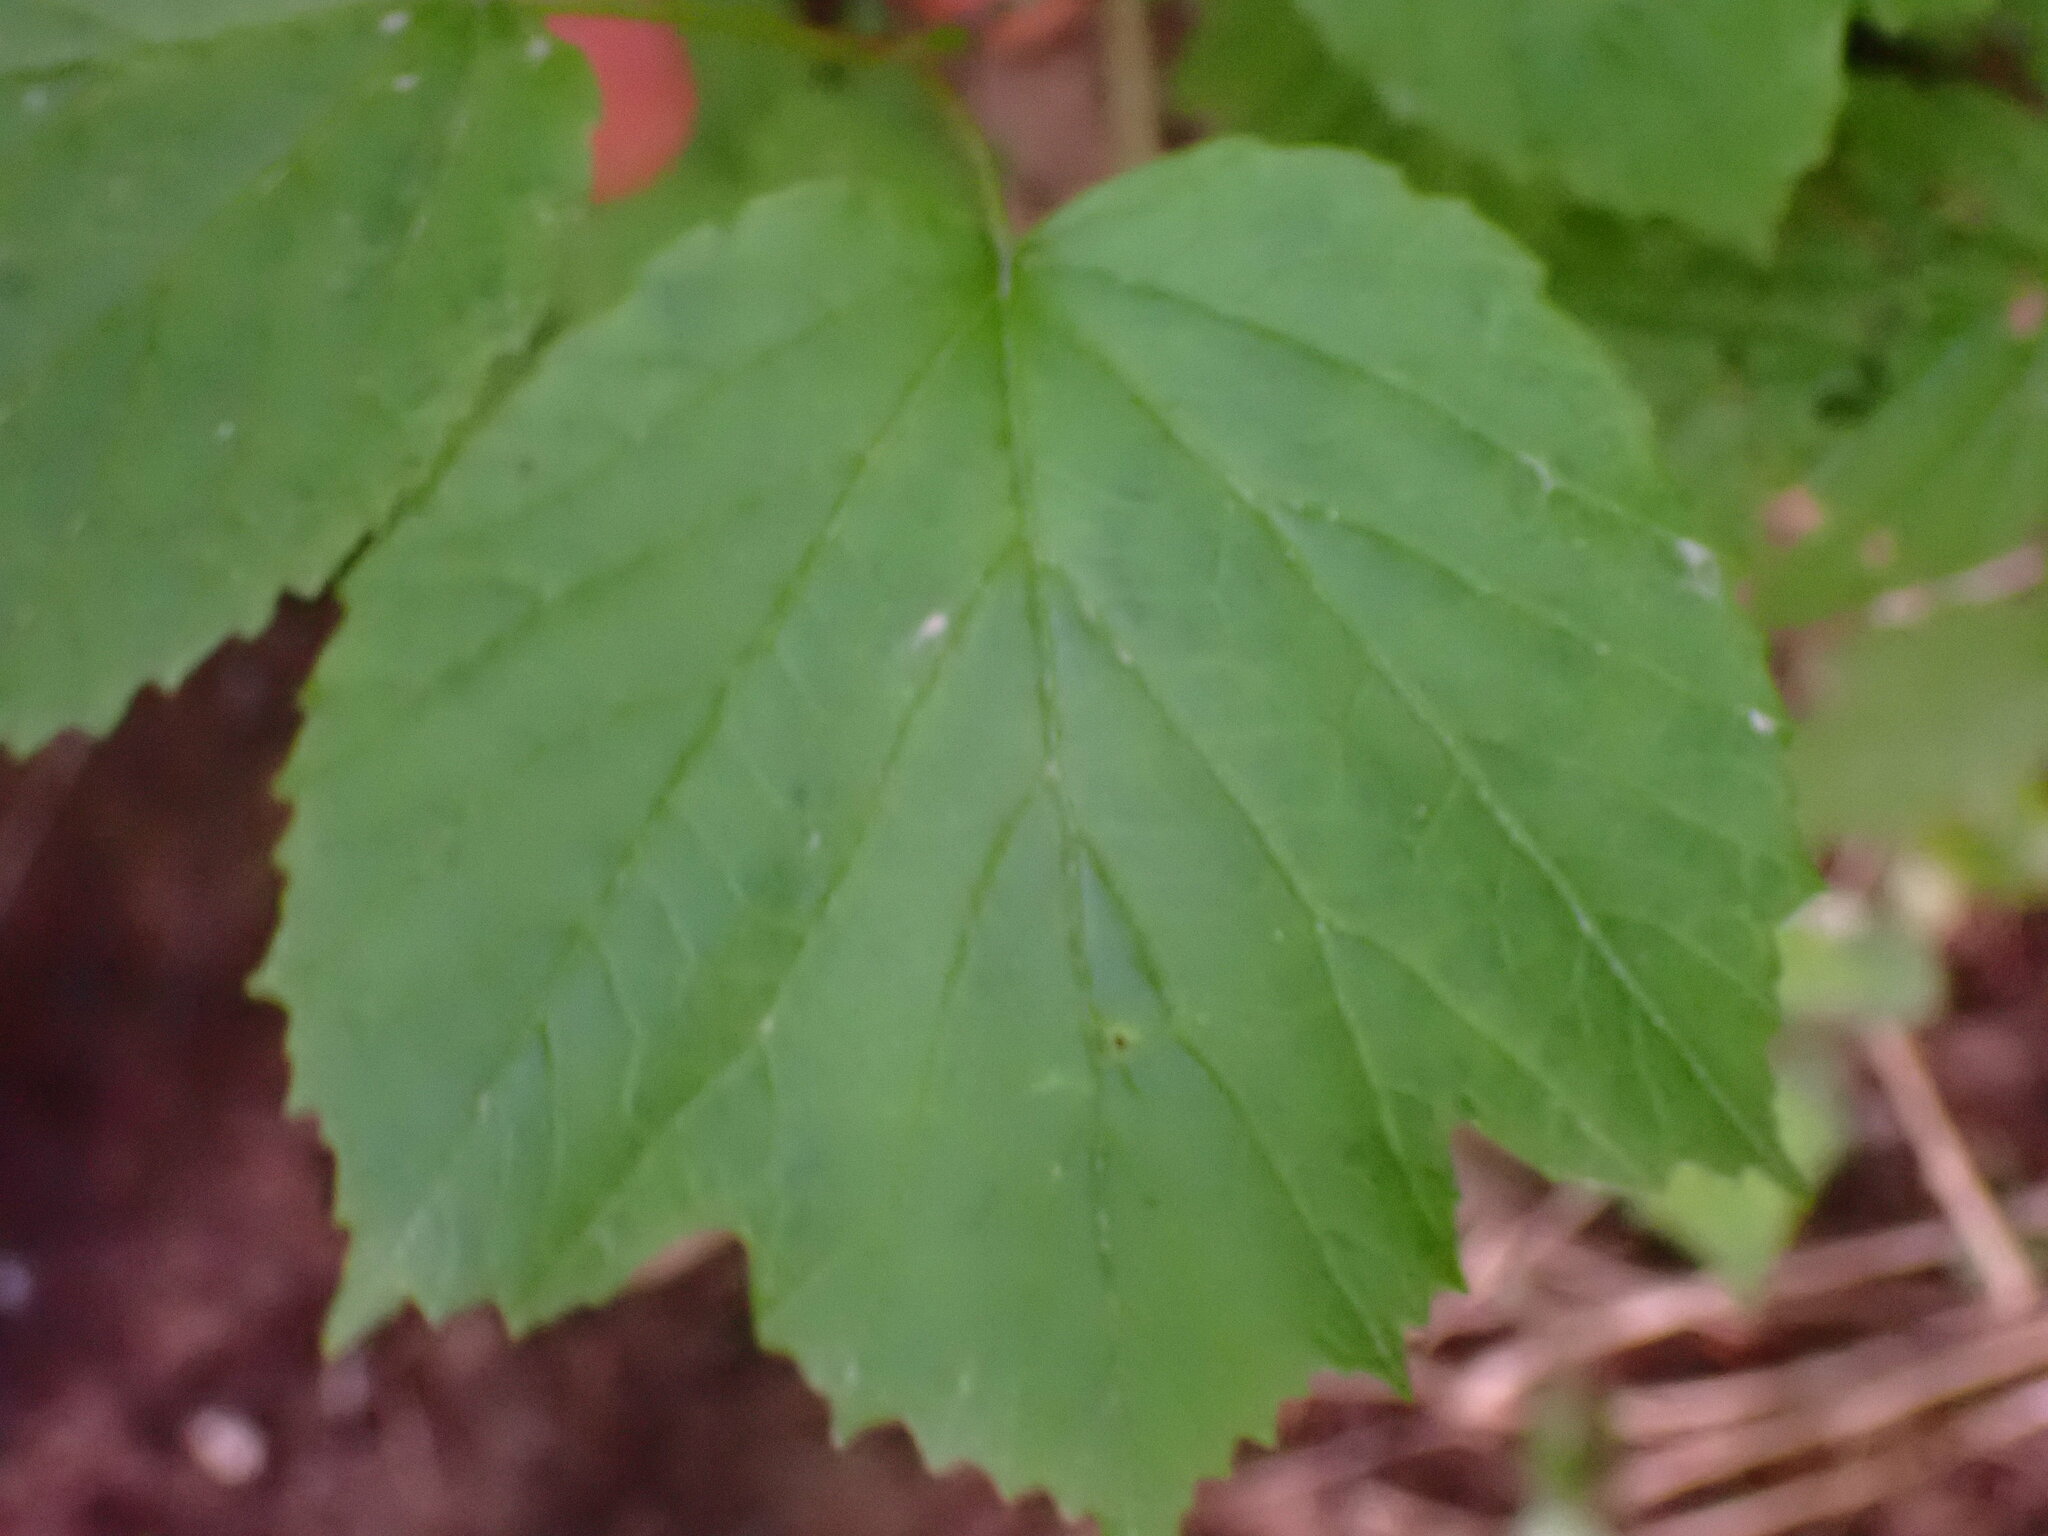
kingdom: Plantae
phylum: Tracheophyta
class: Magnoliopsida
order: Dipsacales
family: Viburnaceae
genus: Viburnum
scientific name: Viburnum edule
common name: Mooseberry
